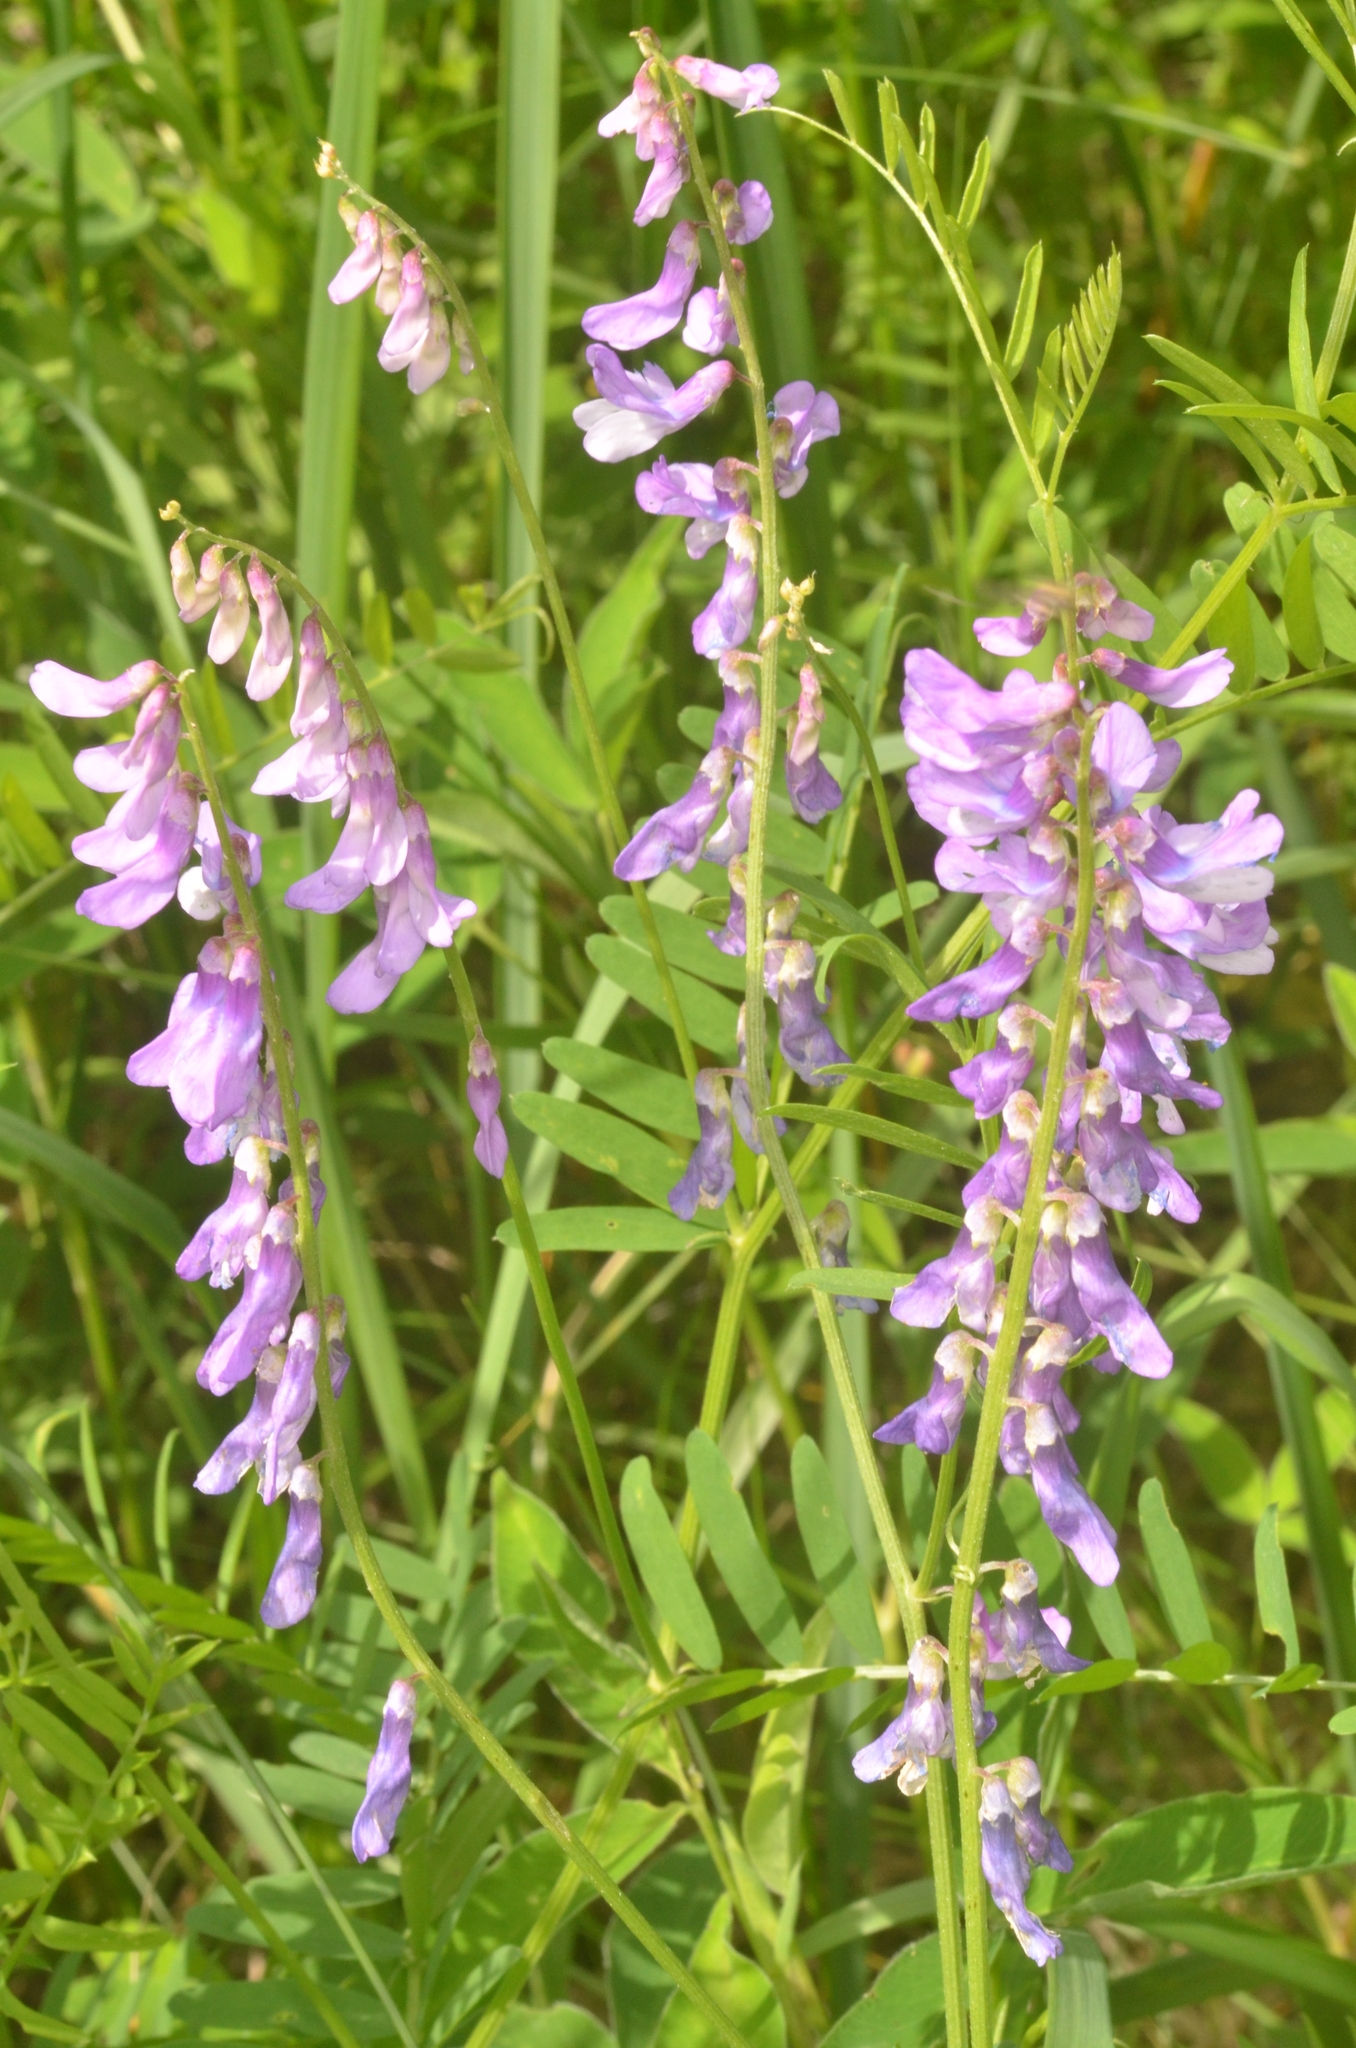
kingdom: Plantae
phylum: Tracheophyta
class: Magnoliopsida
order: Fabales
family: Fabaceae
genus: Vicia
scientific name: Vicia cracca
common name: Bird vetch
